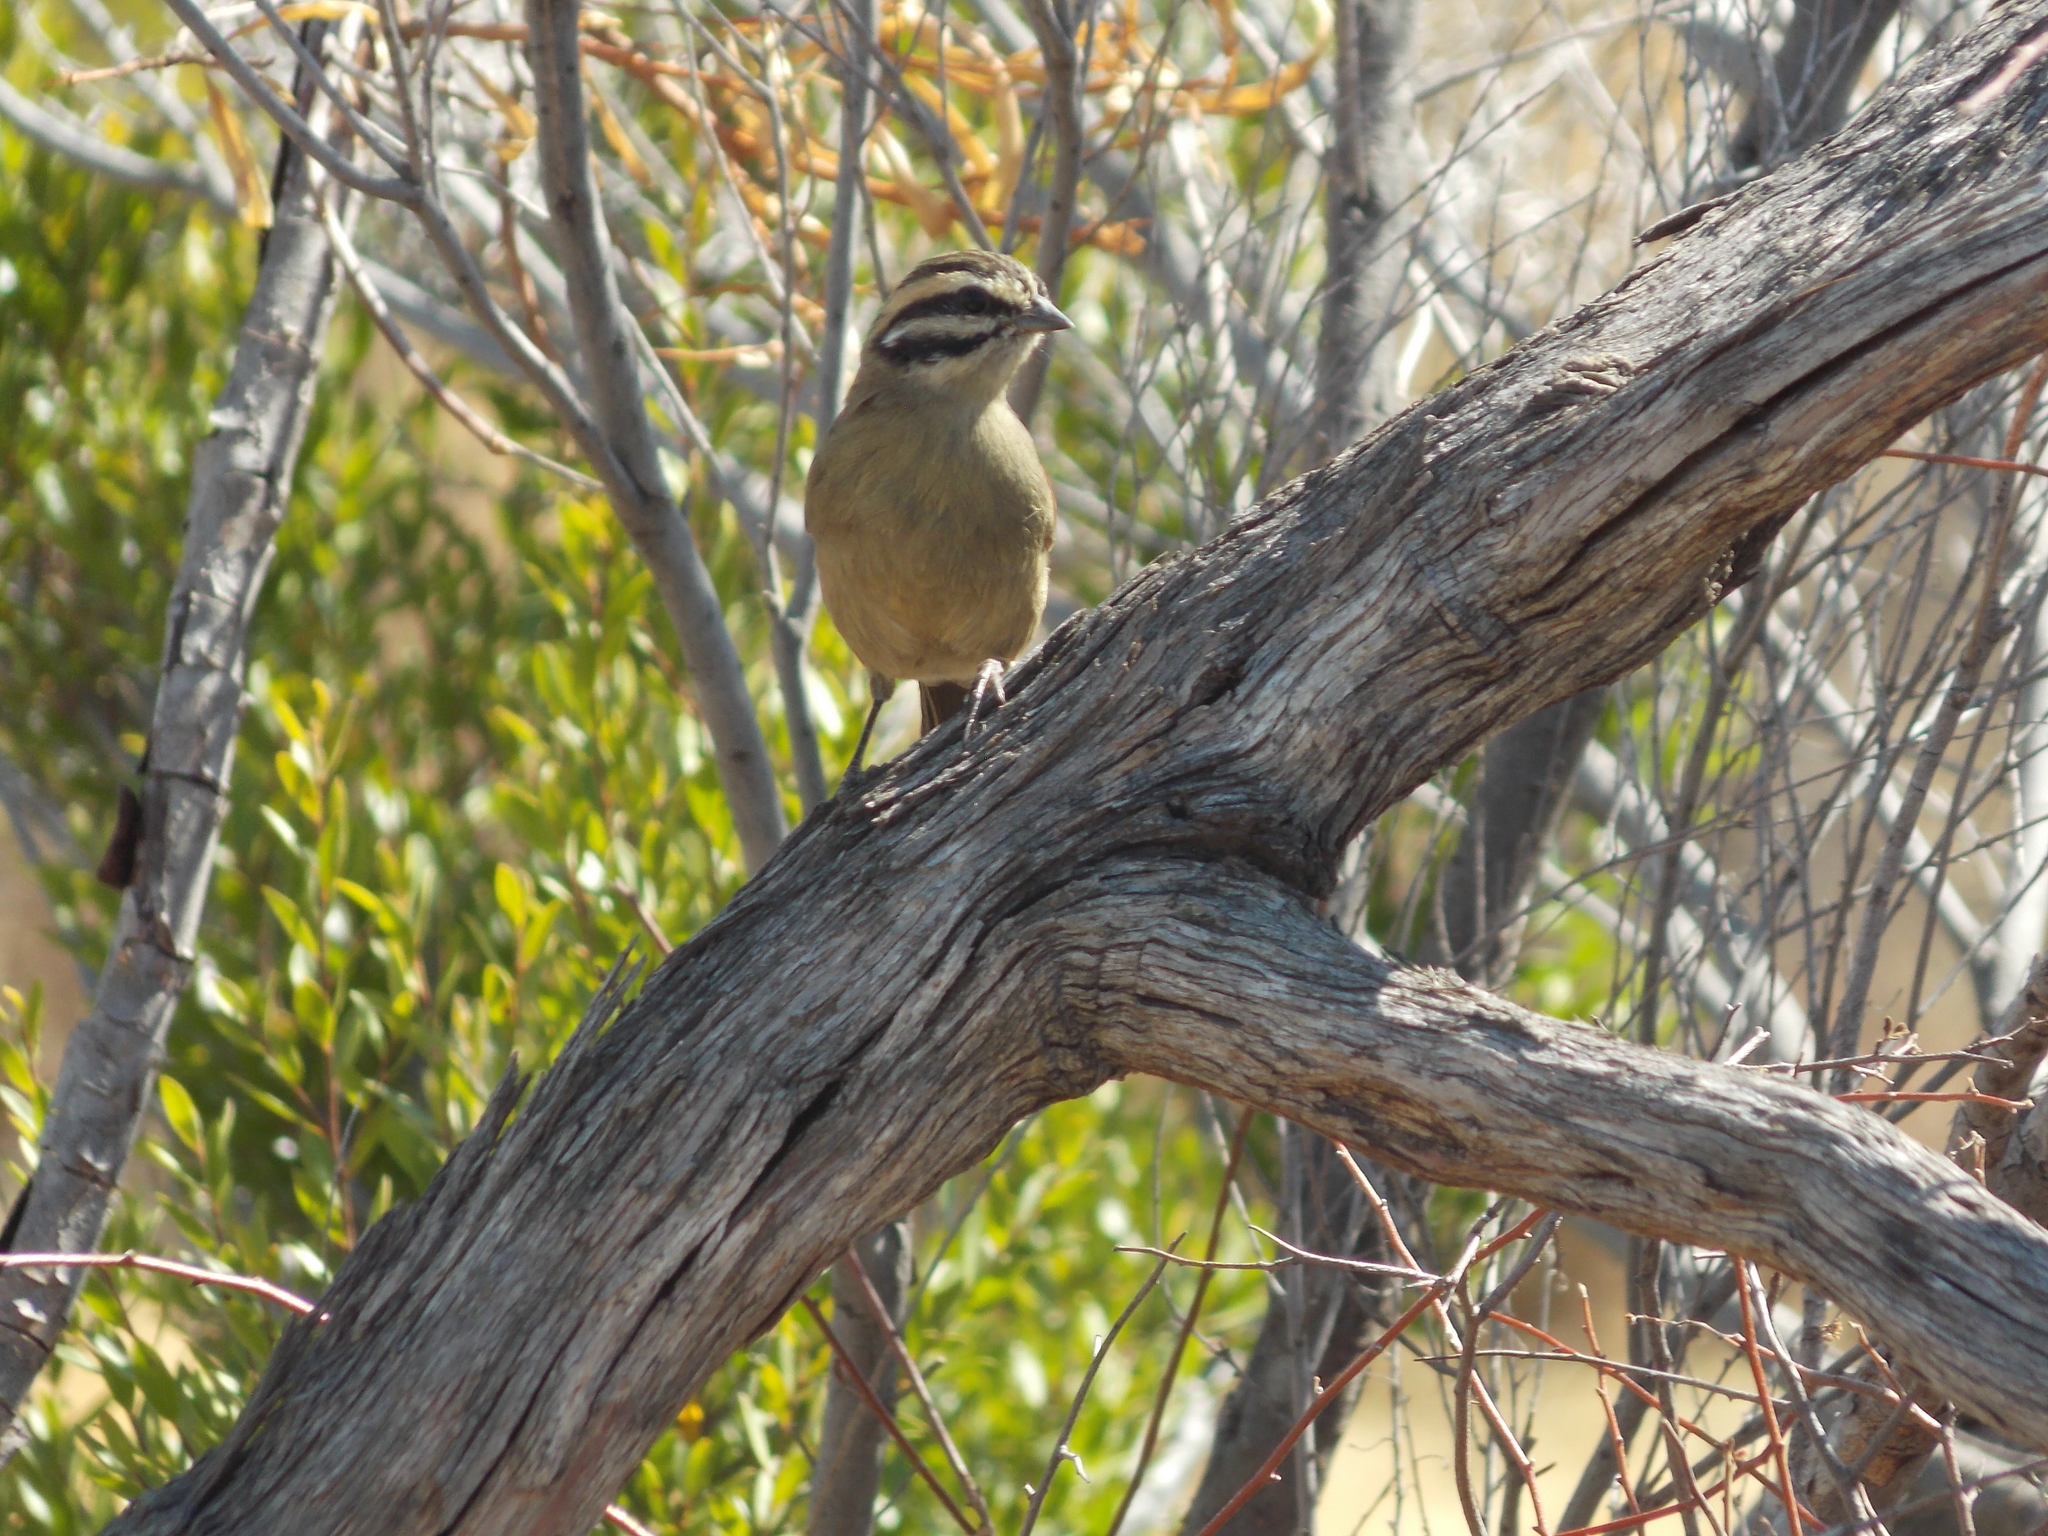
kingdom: Animalia
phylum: Chordata
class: Aves
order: Passeriformes
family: Emberizidae
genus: Emberiza
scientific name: Emberiza capensis
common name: Cape bunting
